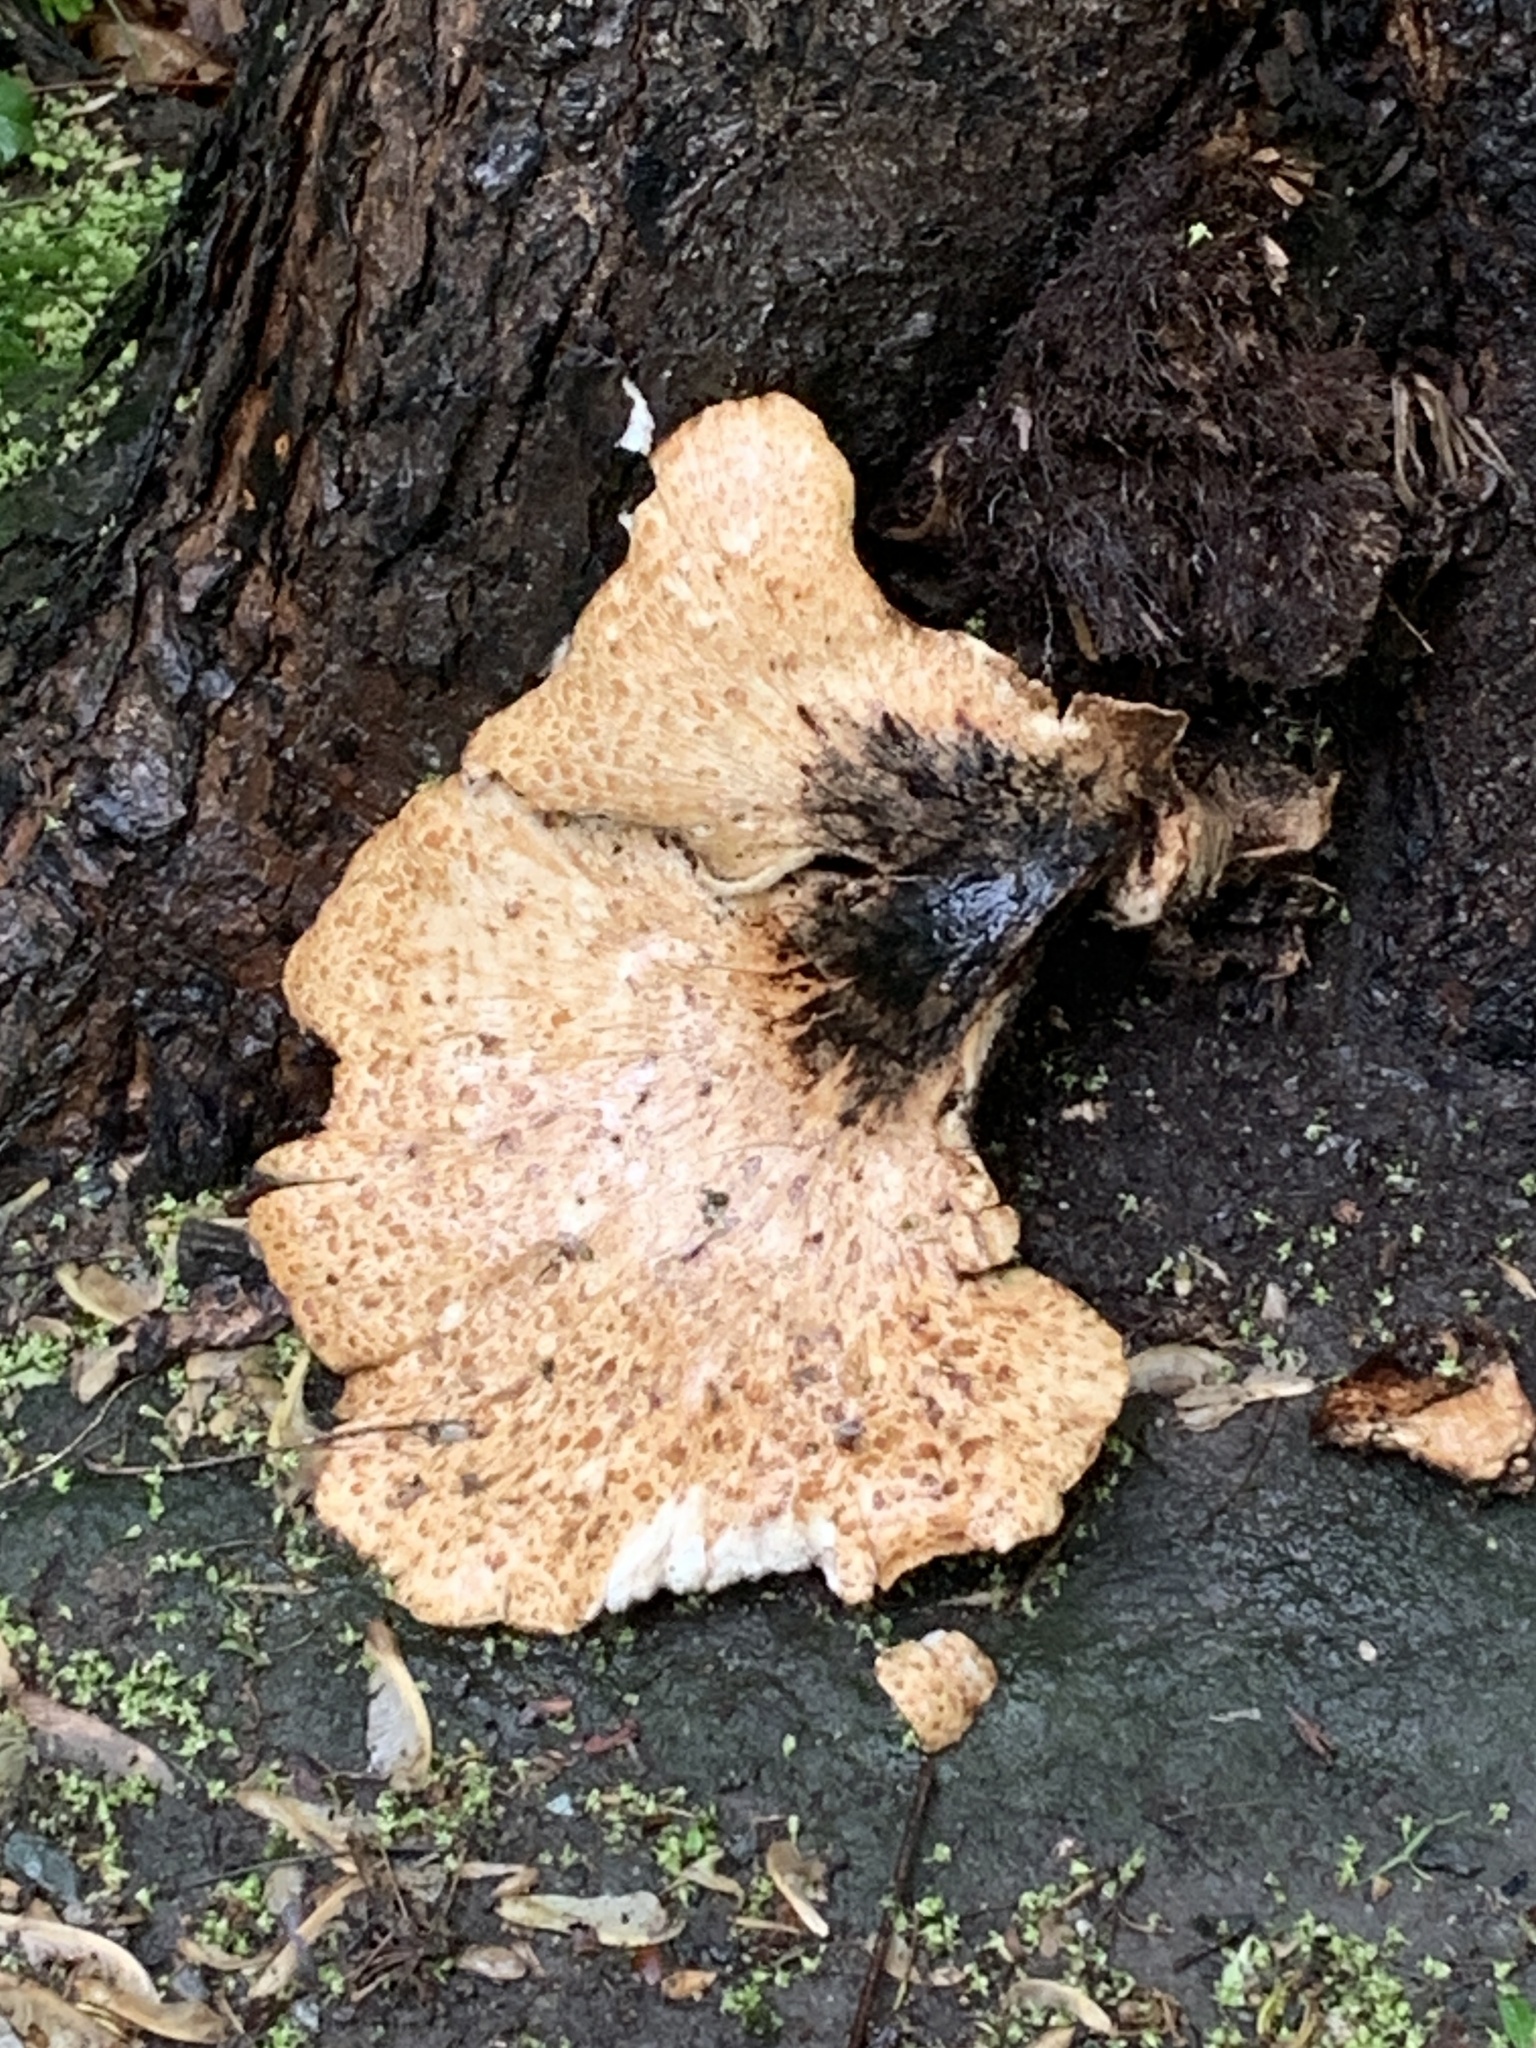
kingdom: Fungi
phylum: Basidiomycota
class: Agaricomycetes
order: Polyporales
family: Polyporaceae
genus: Cerioporus
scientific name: Cerioporus squamosus
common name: Dryad's saddle
